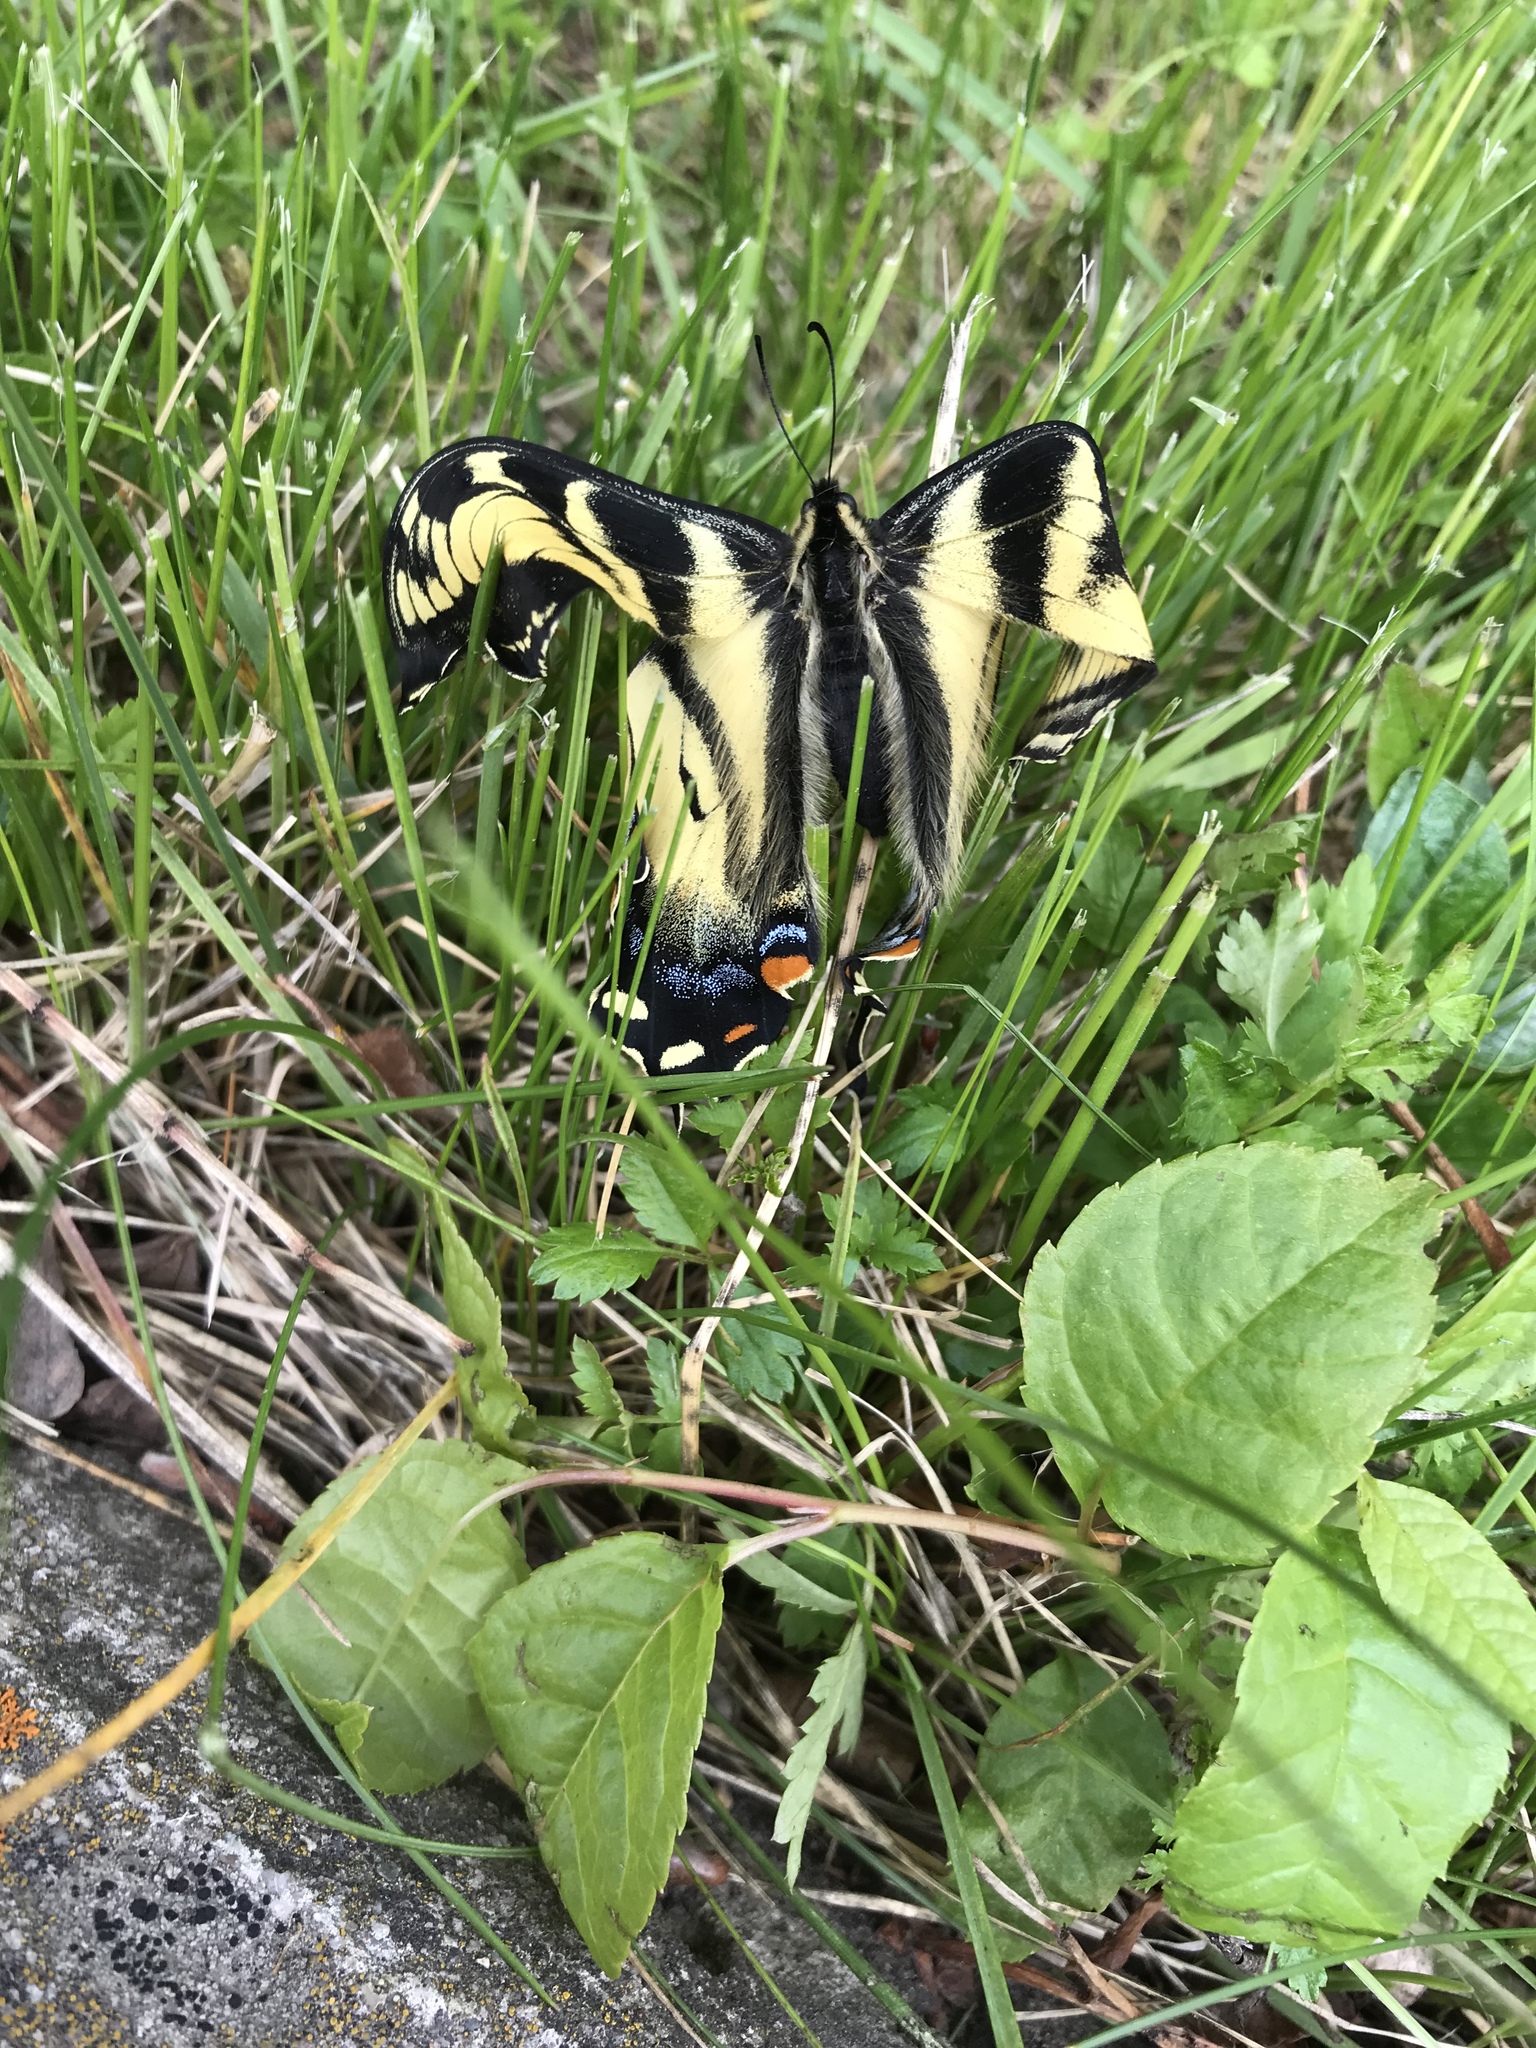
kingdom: Animalia
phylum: Arthropoda
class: Insecta
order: Lepidoptera
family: Papilionidae
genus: Papilio
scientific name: Papilio canadensis
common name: Canadian tiger swallowtail
